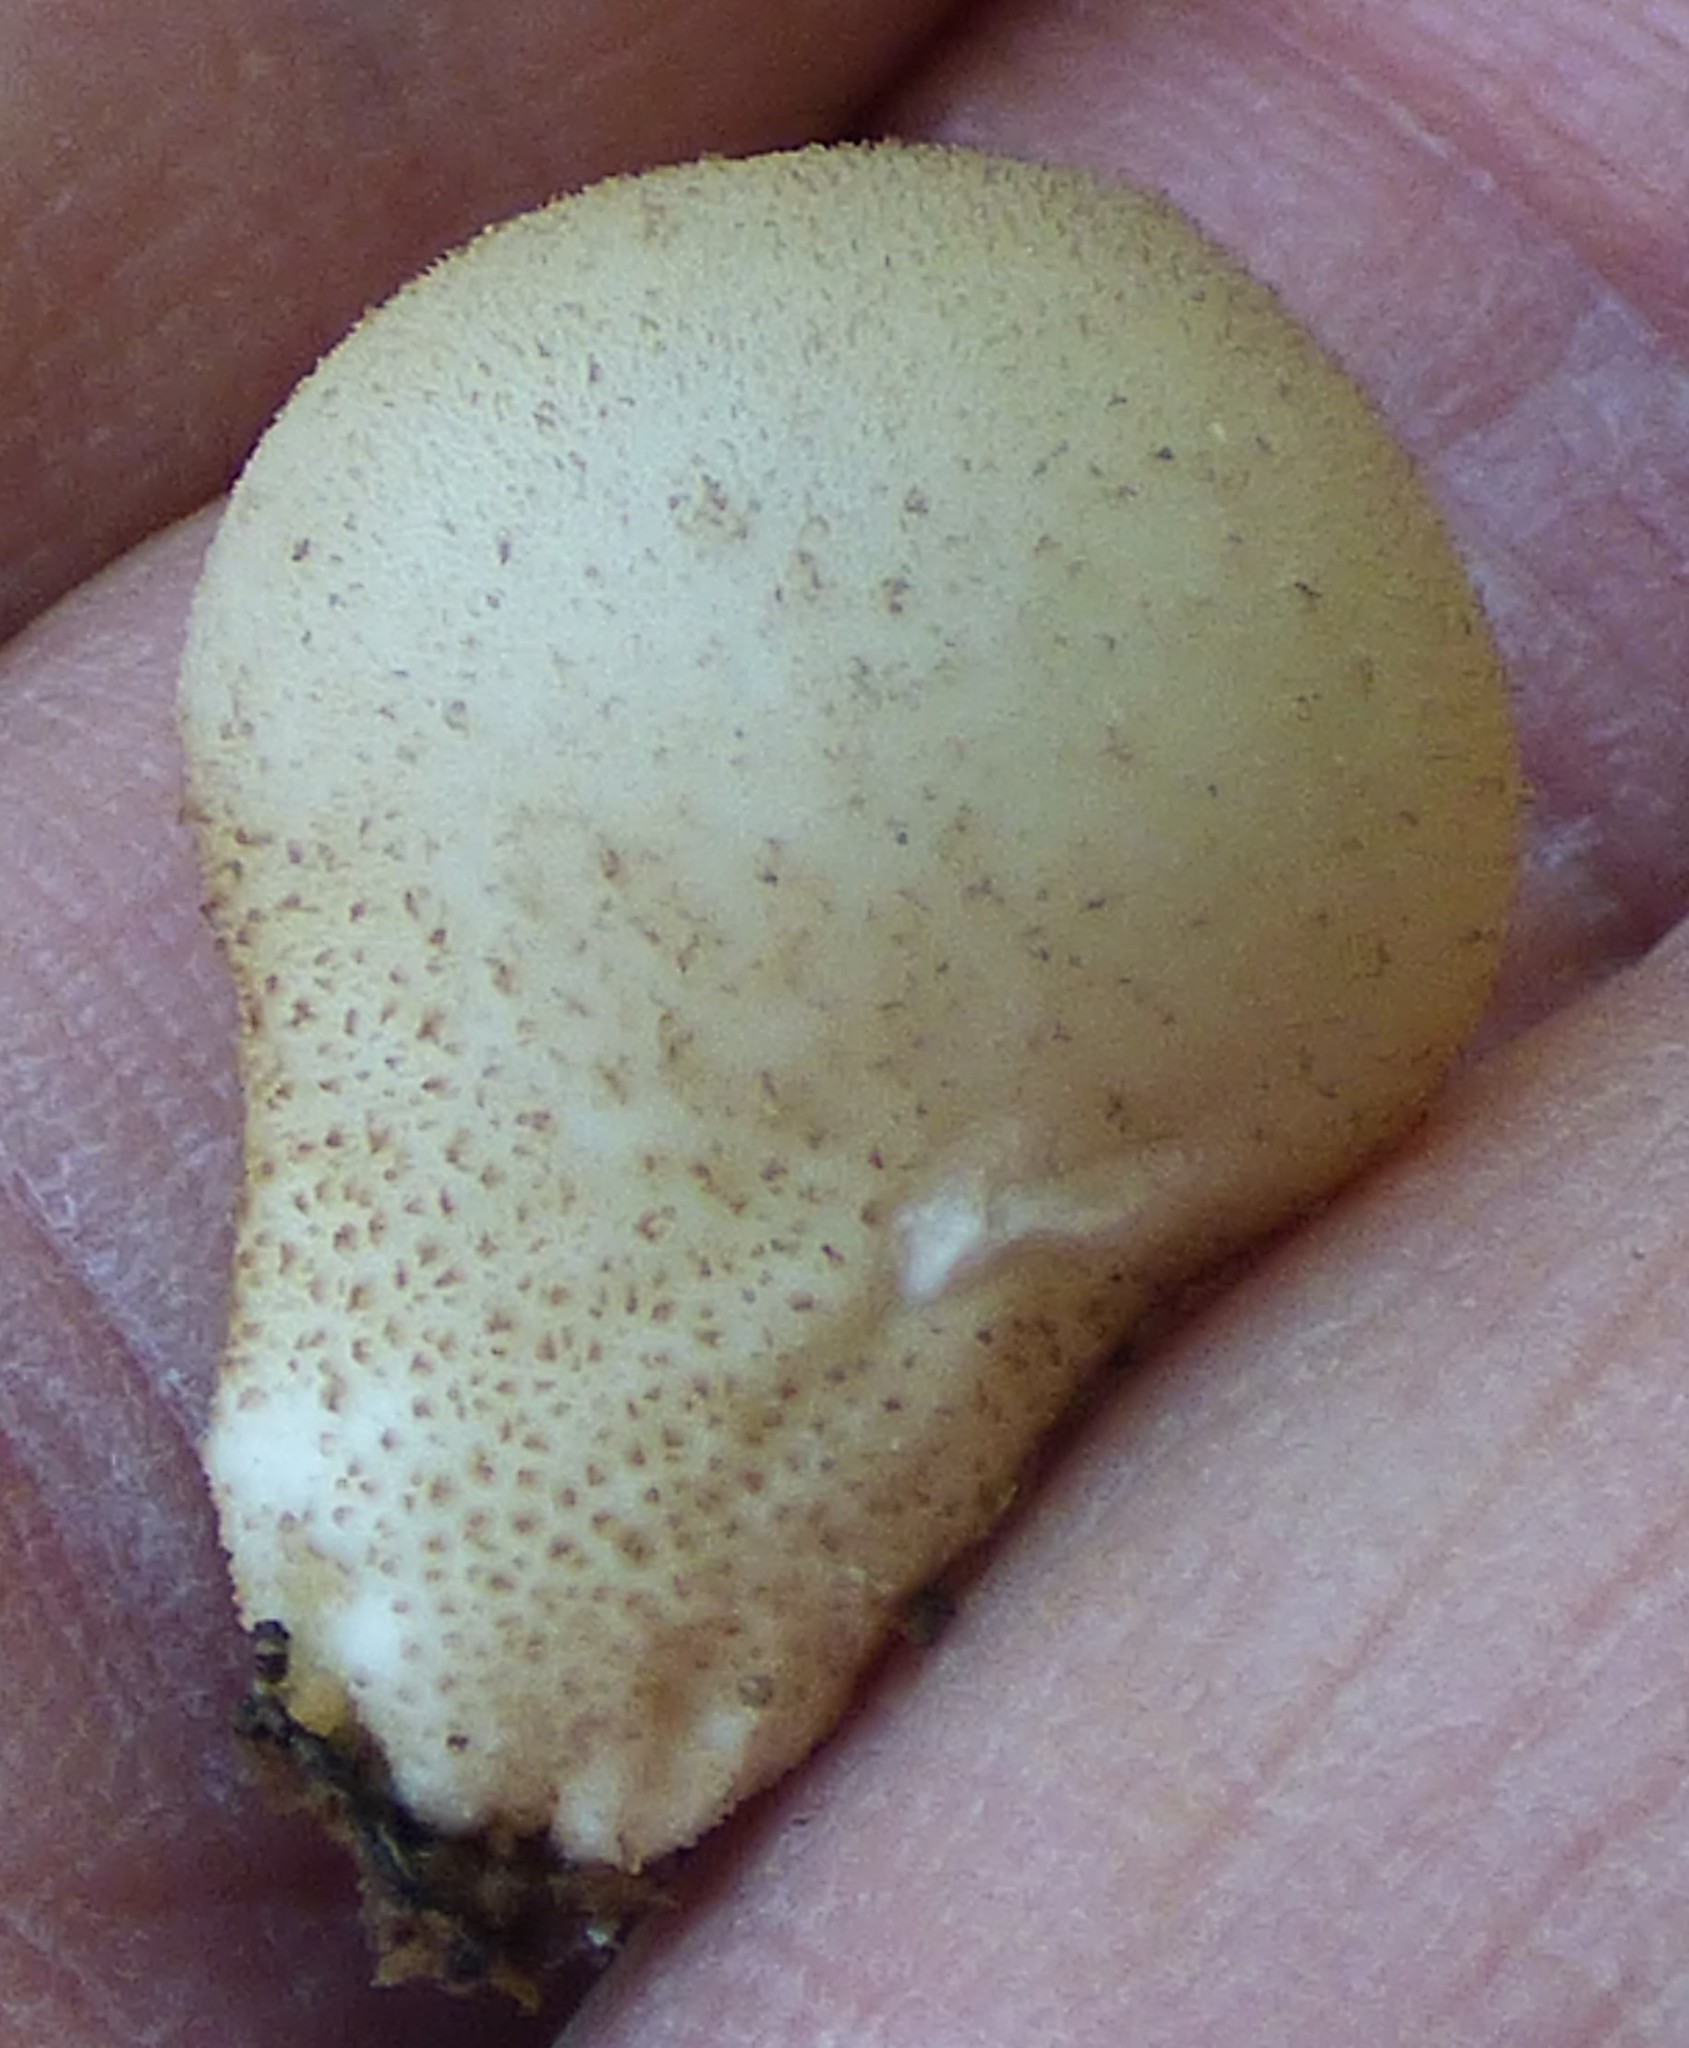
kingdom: Fungi
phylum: Basidiomycota
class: Agaricomycetes
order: Agaricales
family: Lycoperdaceae
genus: Apioperdon
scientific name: Apioperdon pyriforme
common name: Pear-shaped puffball
